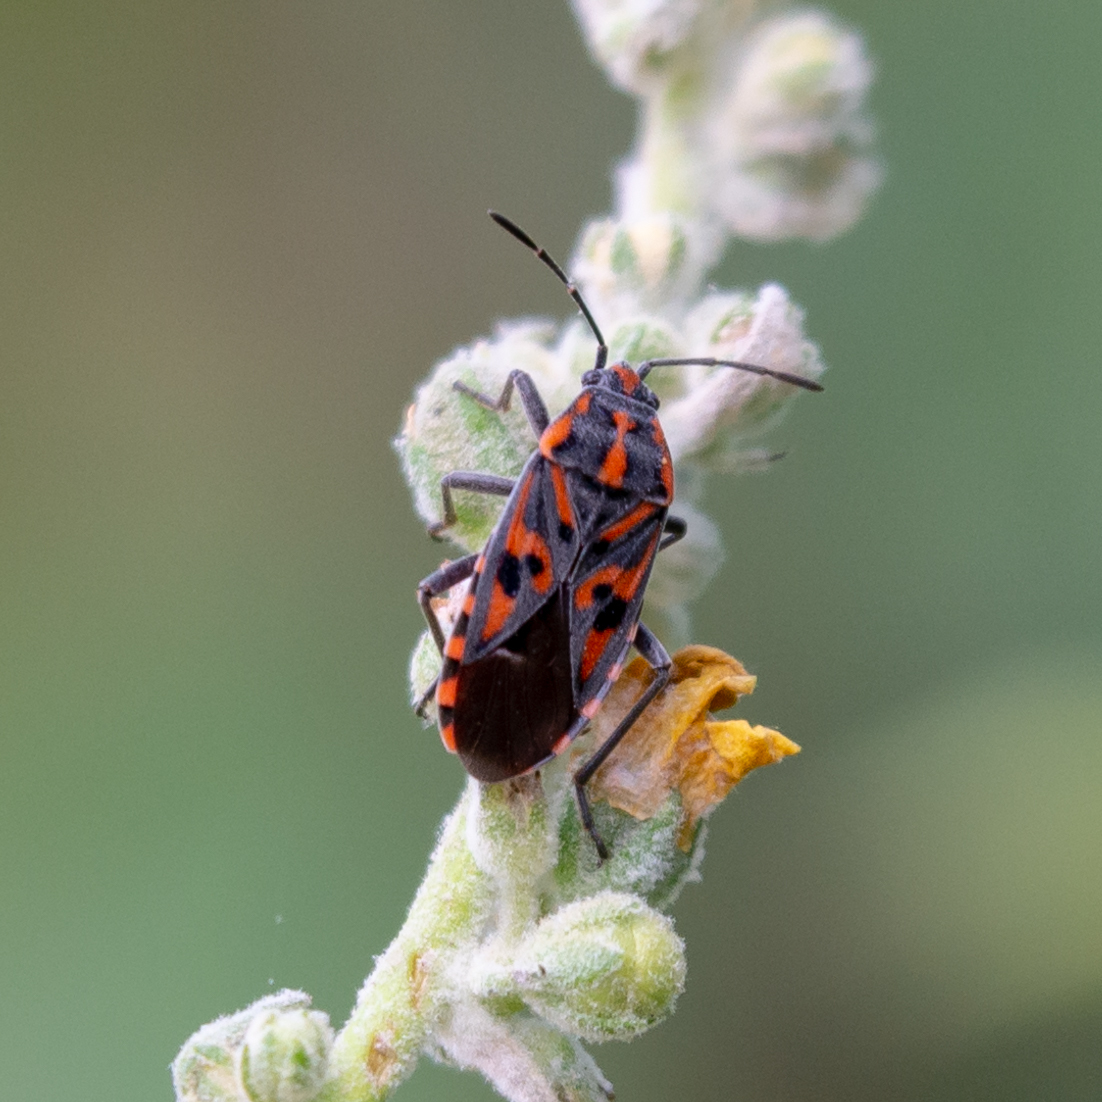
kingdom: Animalia
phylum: Arthropoda
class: Insecta
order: Hemiptera
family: Lygaeidae
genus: Spilostethus
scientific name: Spilostethus saxatilis
